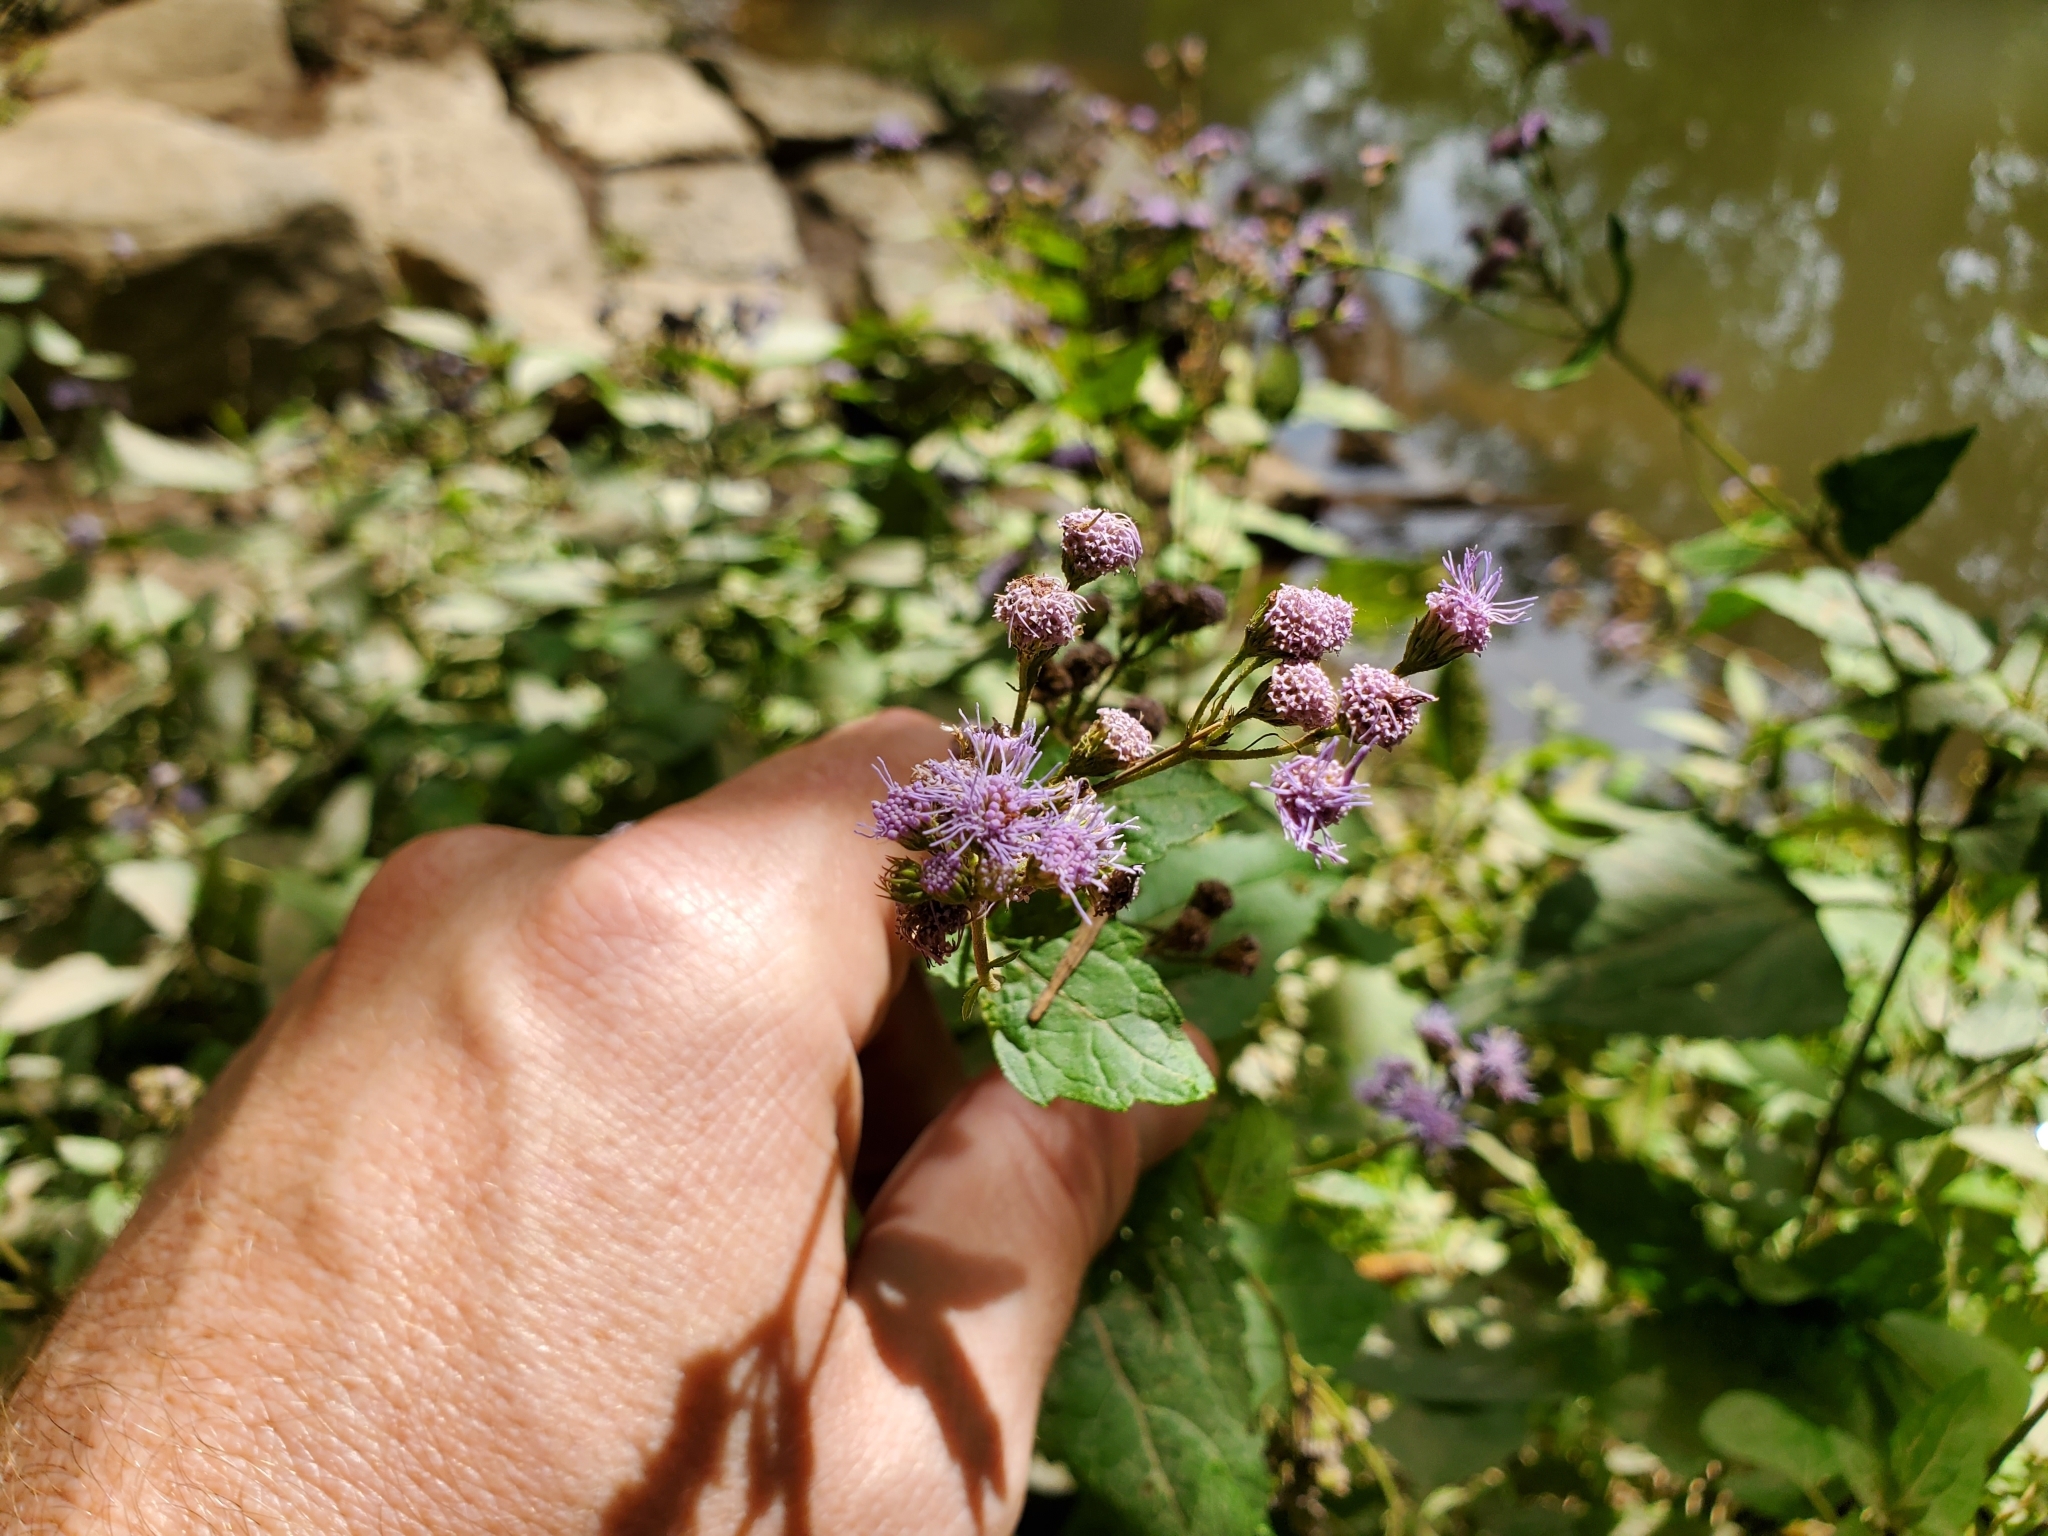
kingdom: Plantae
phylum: Tracheophyta
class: Magnoliopsida
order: Asterales
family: Asteraceae
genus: Conoclinium
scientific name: Conoclinium coelestinum
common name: Blue mistflower
